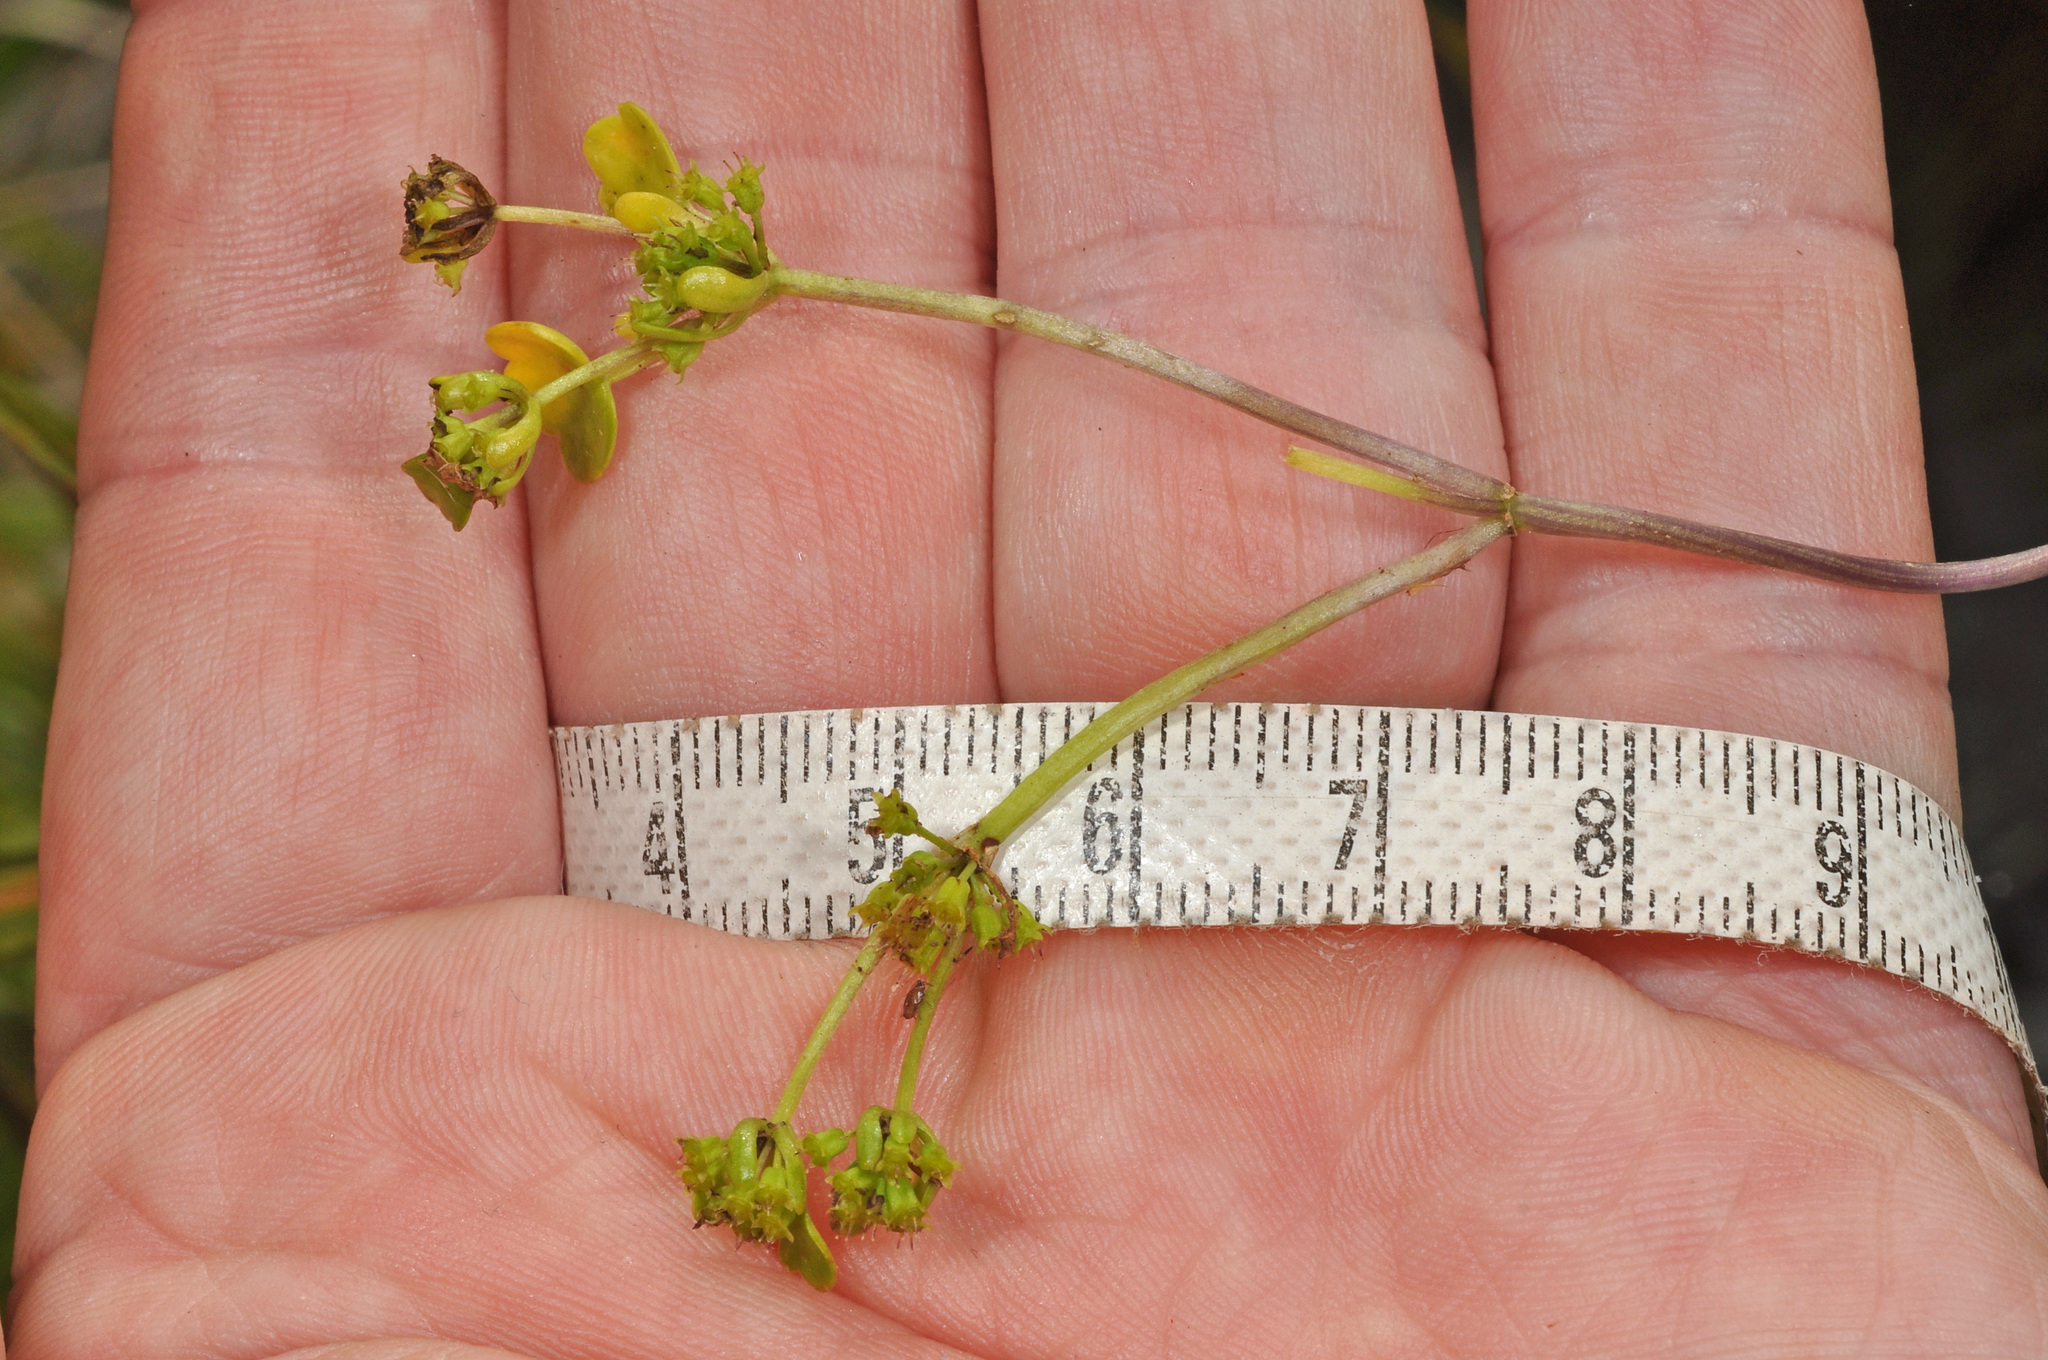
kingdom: Plantae
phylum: Tracheophyta
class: Magnoliopsida
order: Apiales
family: Apiaceae
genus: Azorella
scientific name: Azorella haastii
